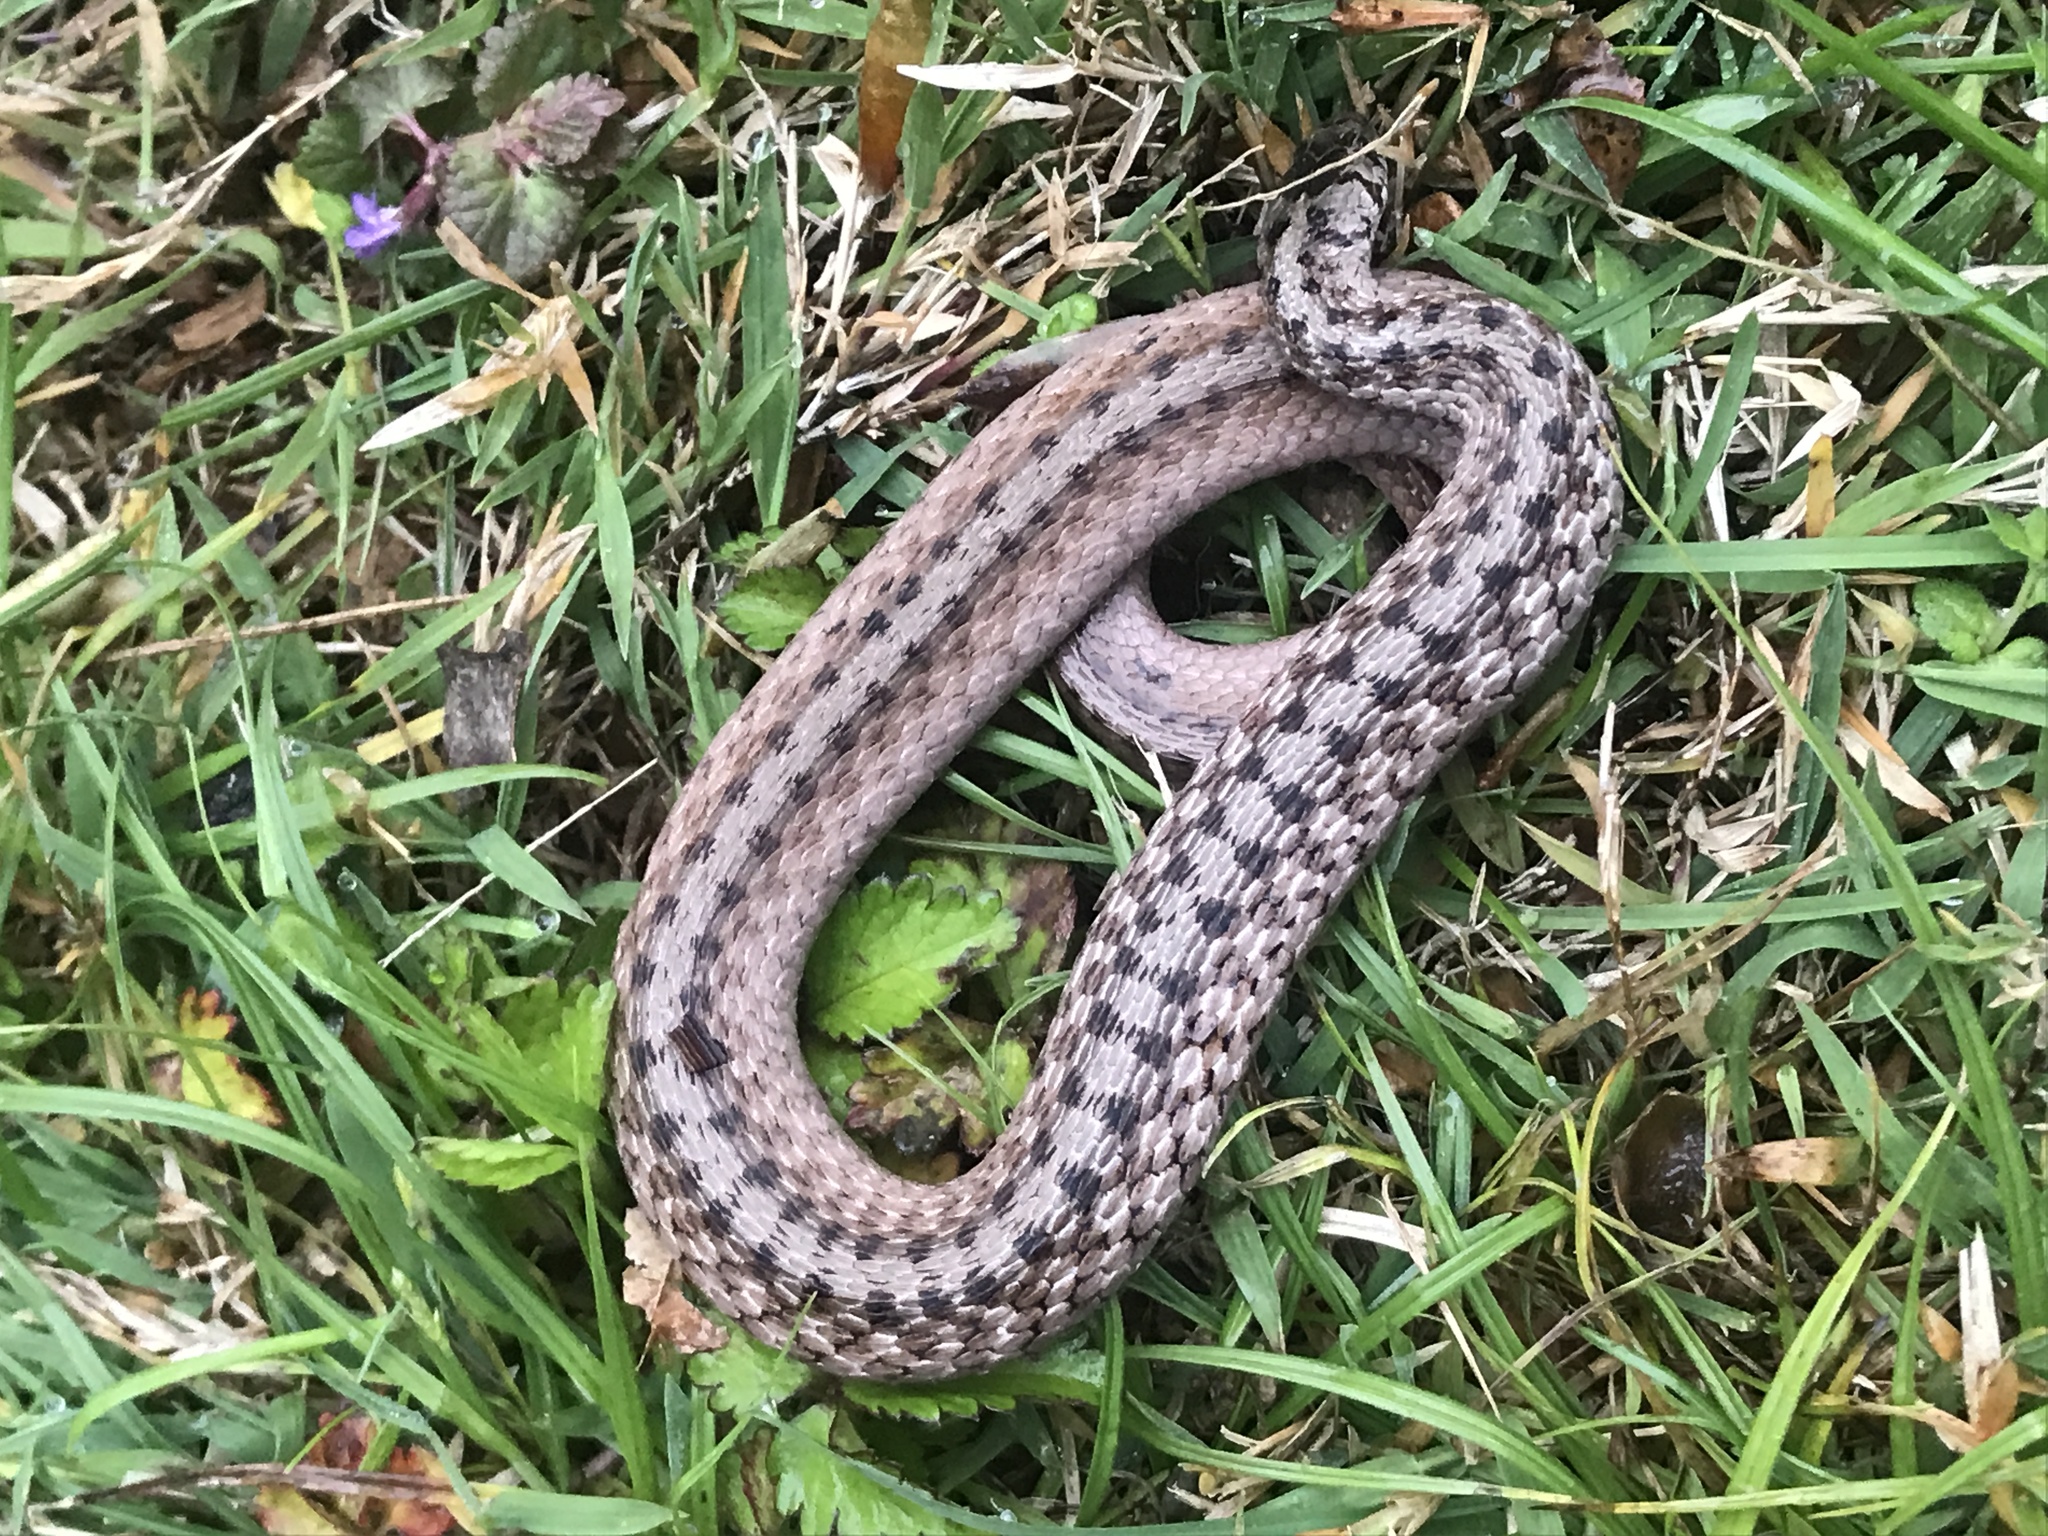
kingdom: Animalia
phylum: Chordata
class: Squamata
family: Colubridae
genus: Storeria
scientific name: Storeria dekayi
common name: (dekay’s) brown snake
